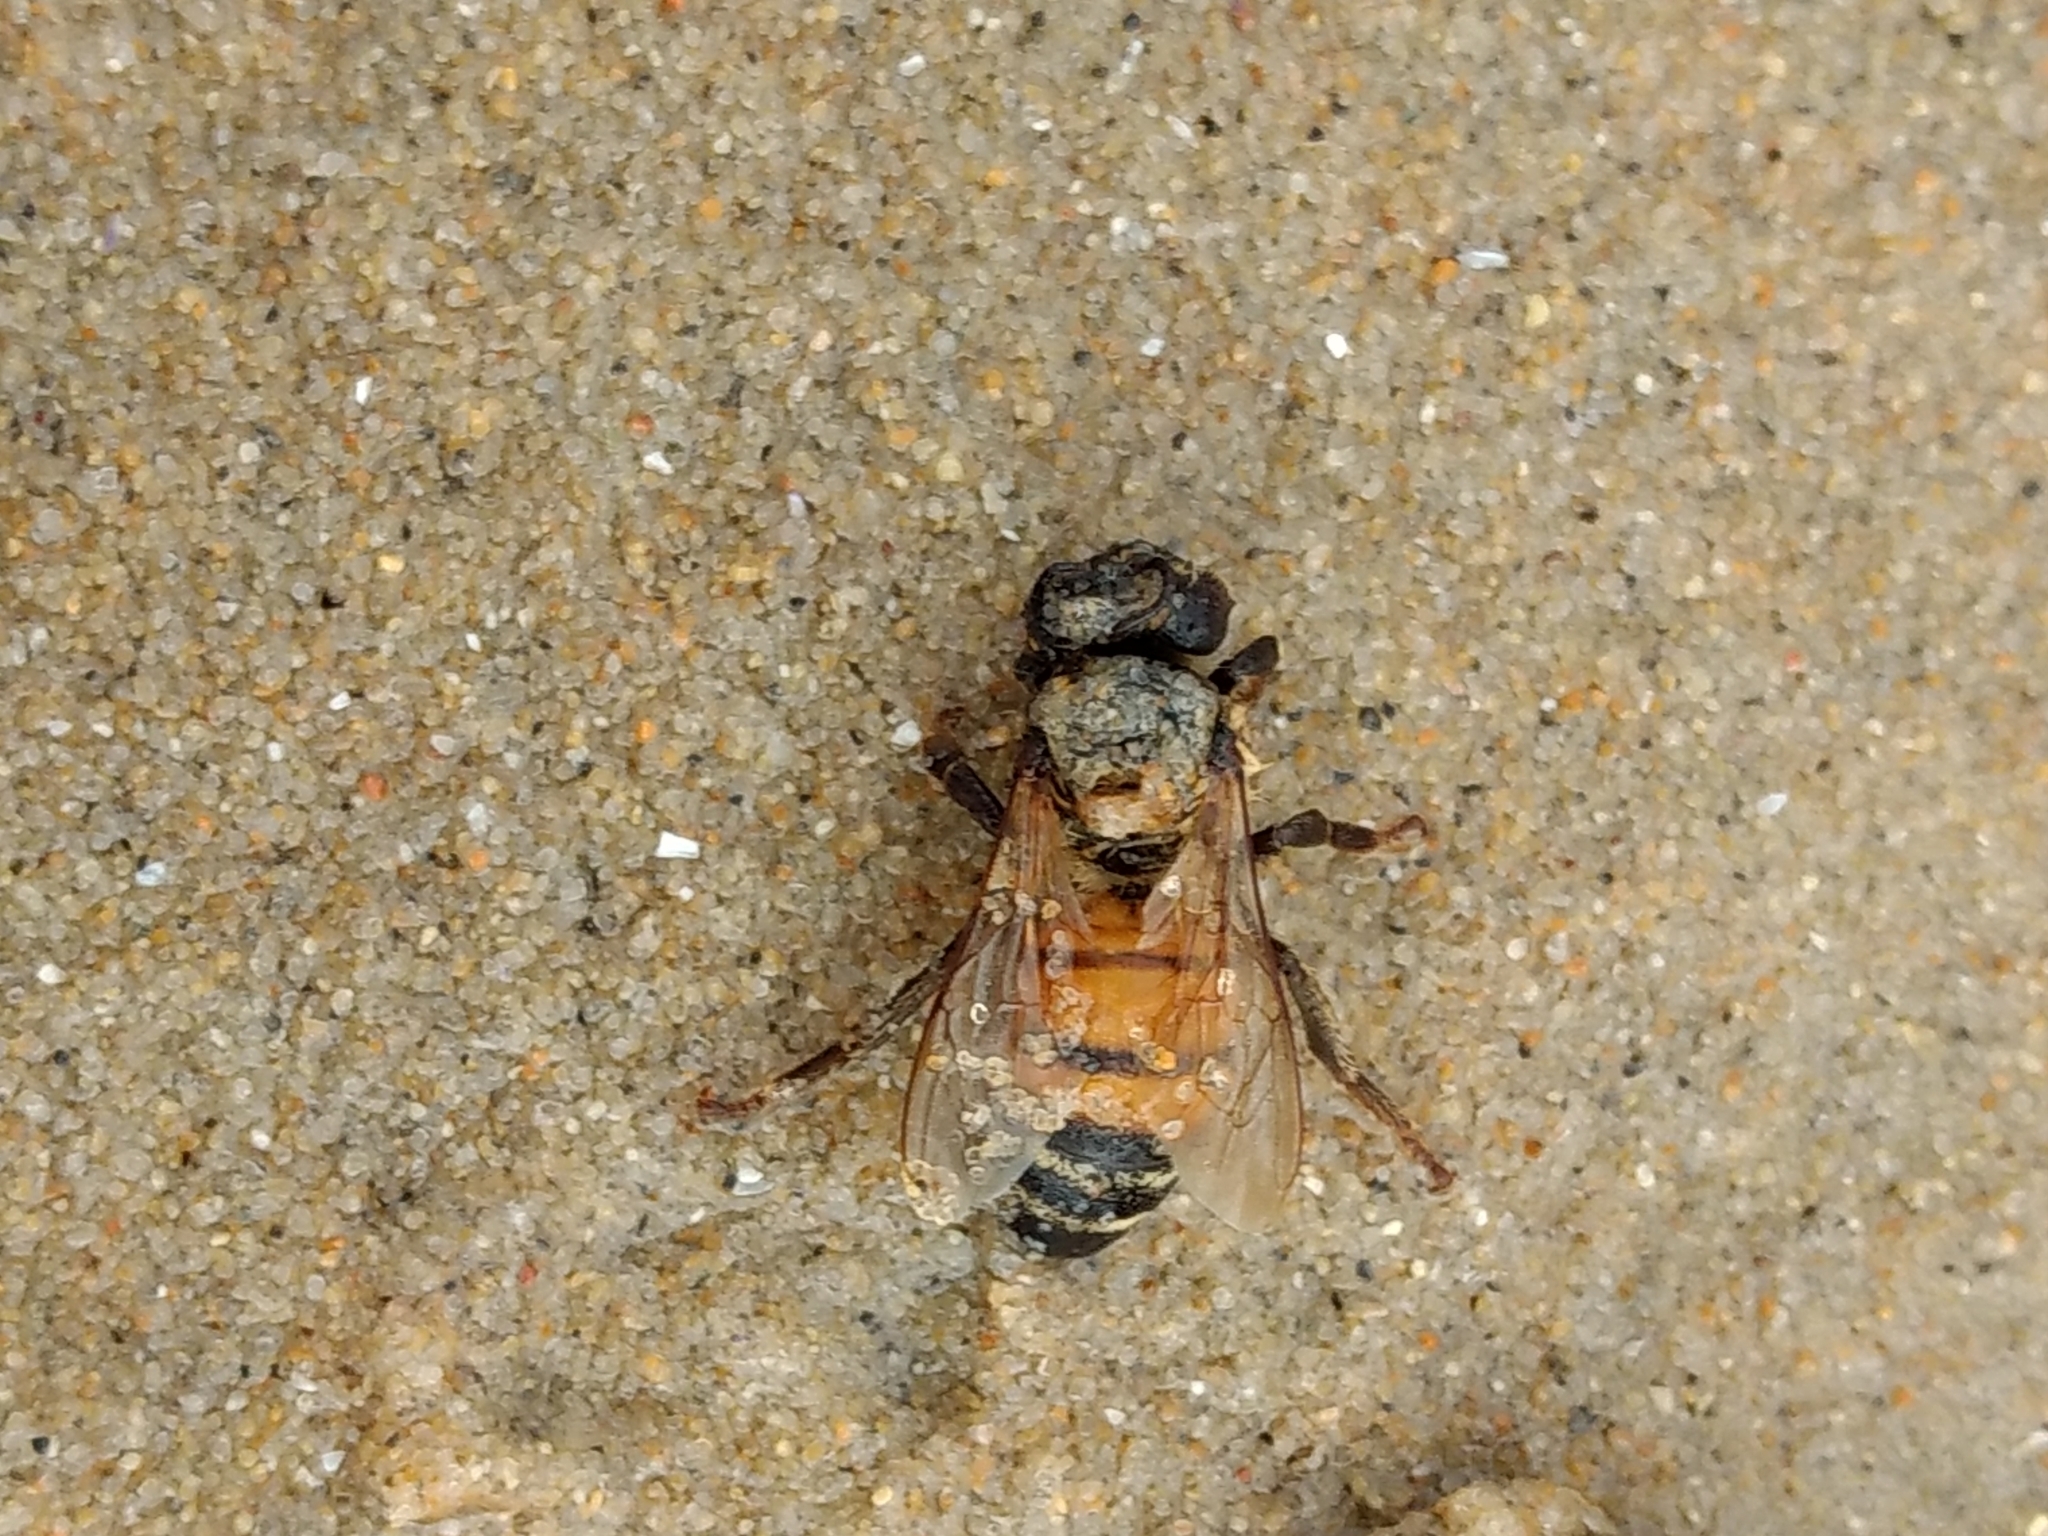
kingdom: Animalia
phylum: Arthropoda
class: Insecta
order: Hymenoptera
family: Apidae
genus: Apis
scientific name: Apis mellifera
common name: Honey bee
